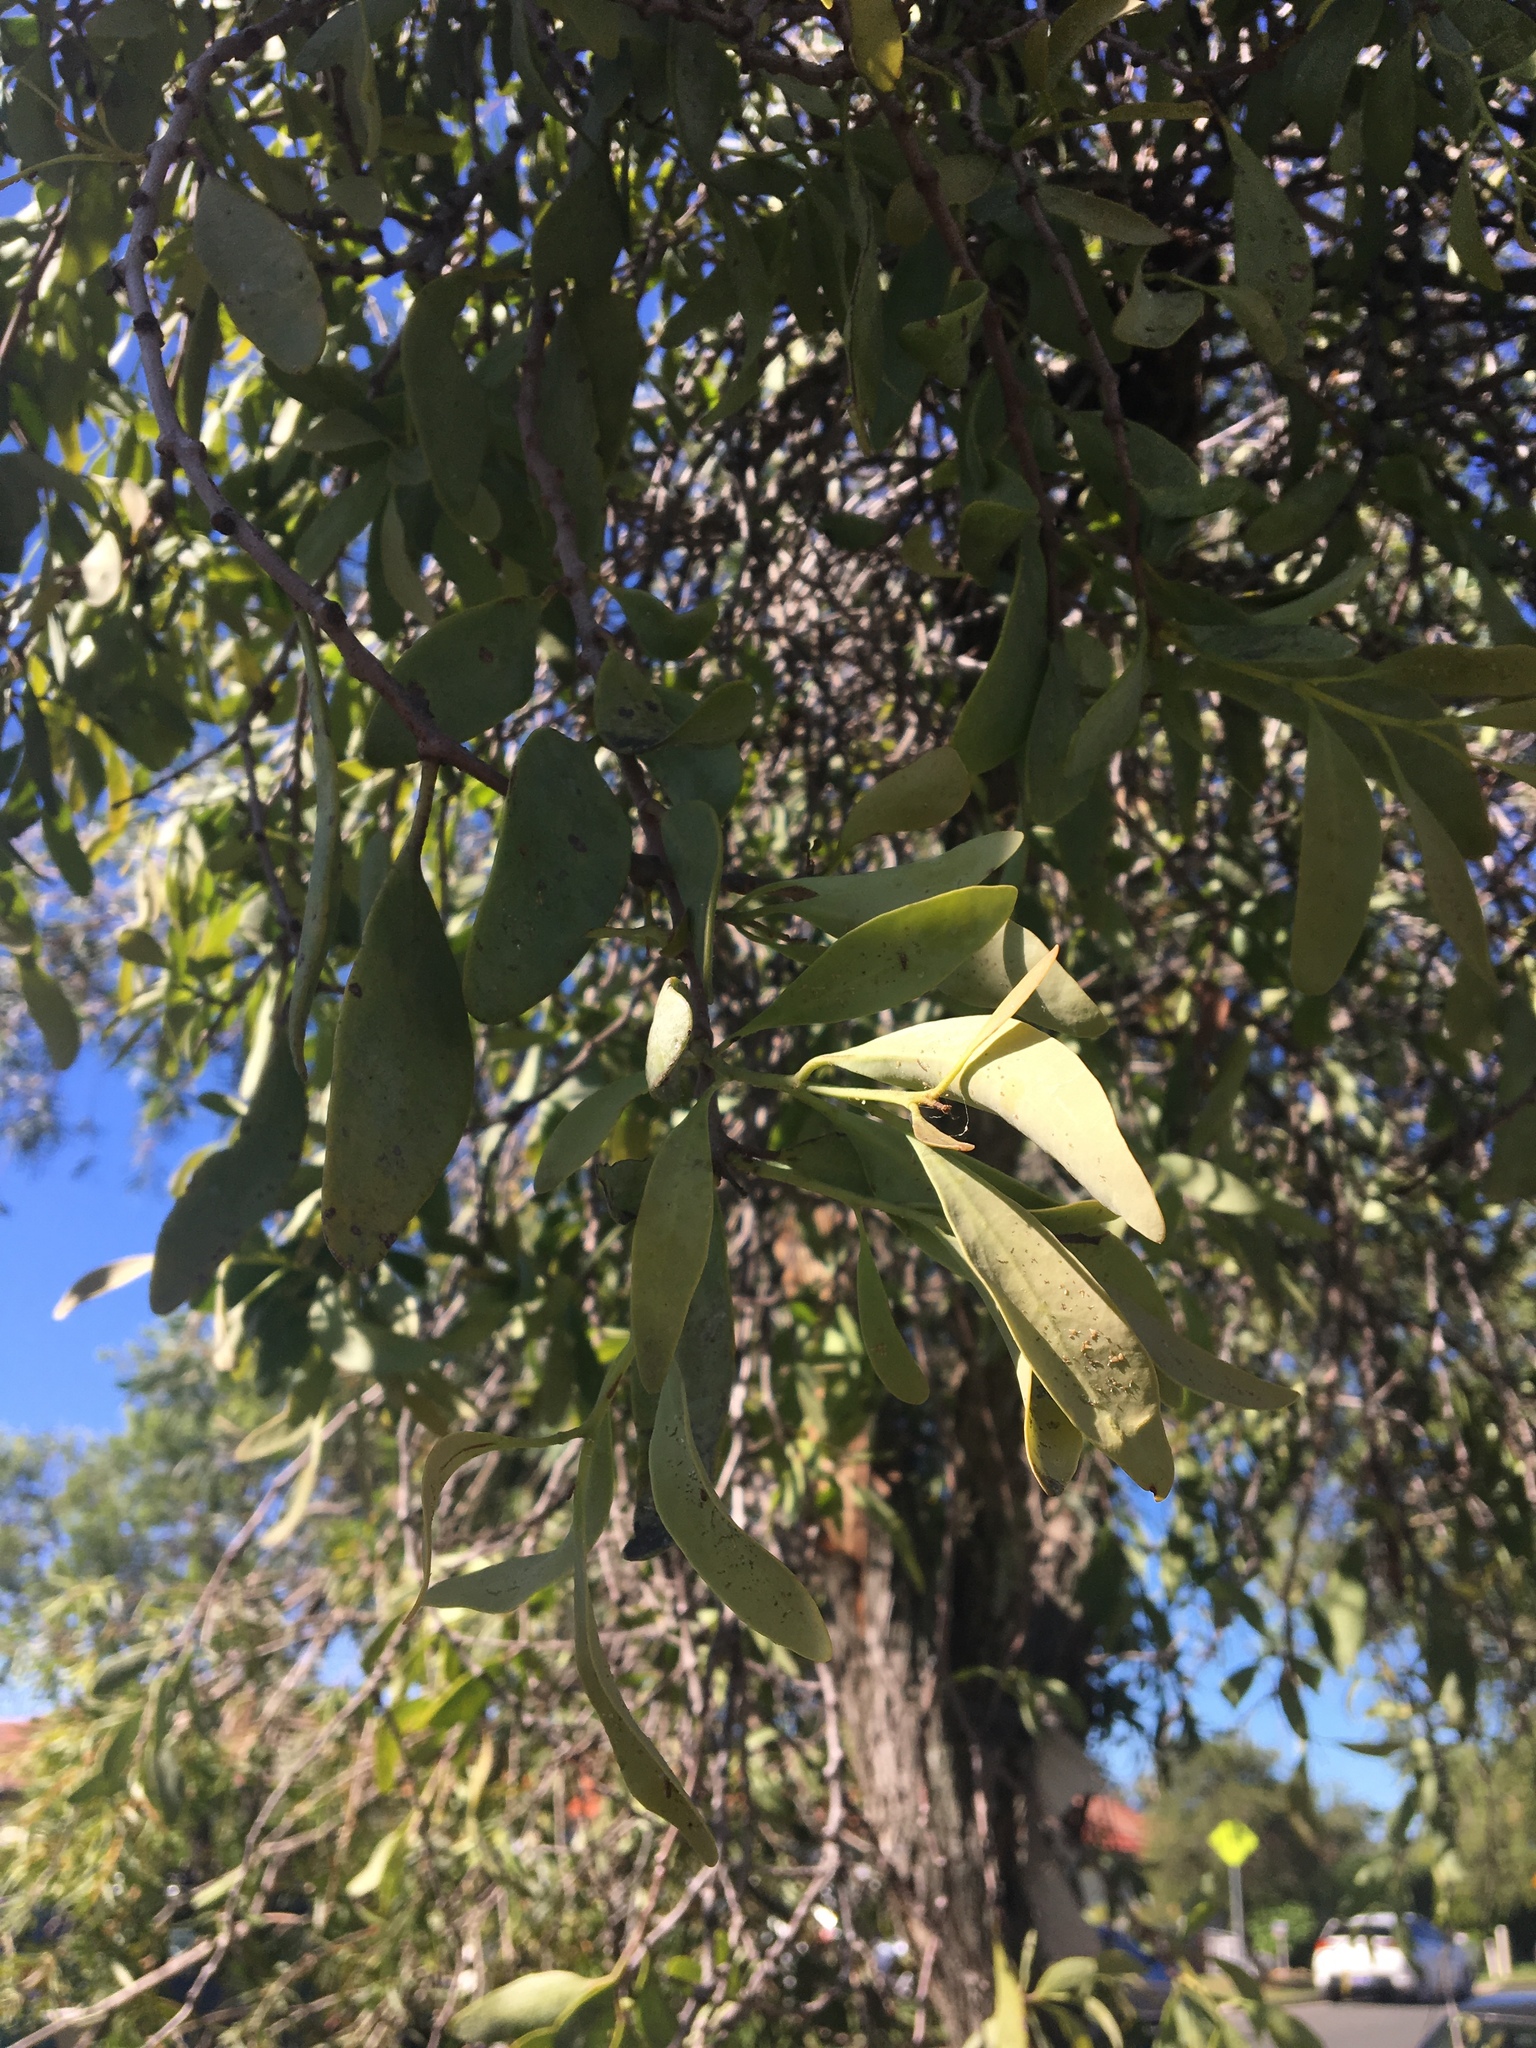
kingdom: Plantae
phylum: Tracheophyta
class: Magnoliopsida
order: Santalales
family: Loranthaceae
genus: Dendrophthoe
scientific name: Dendrophthoe vitellina
